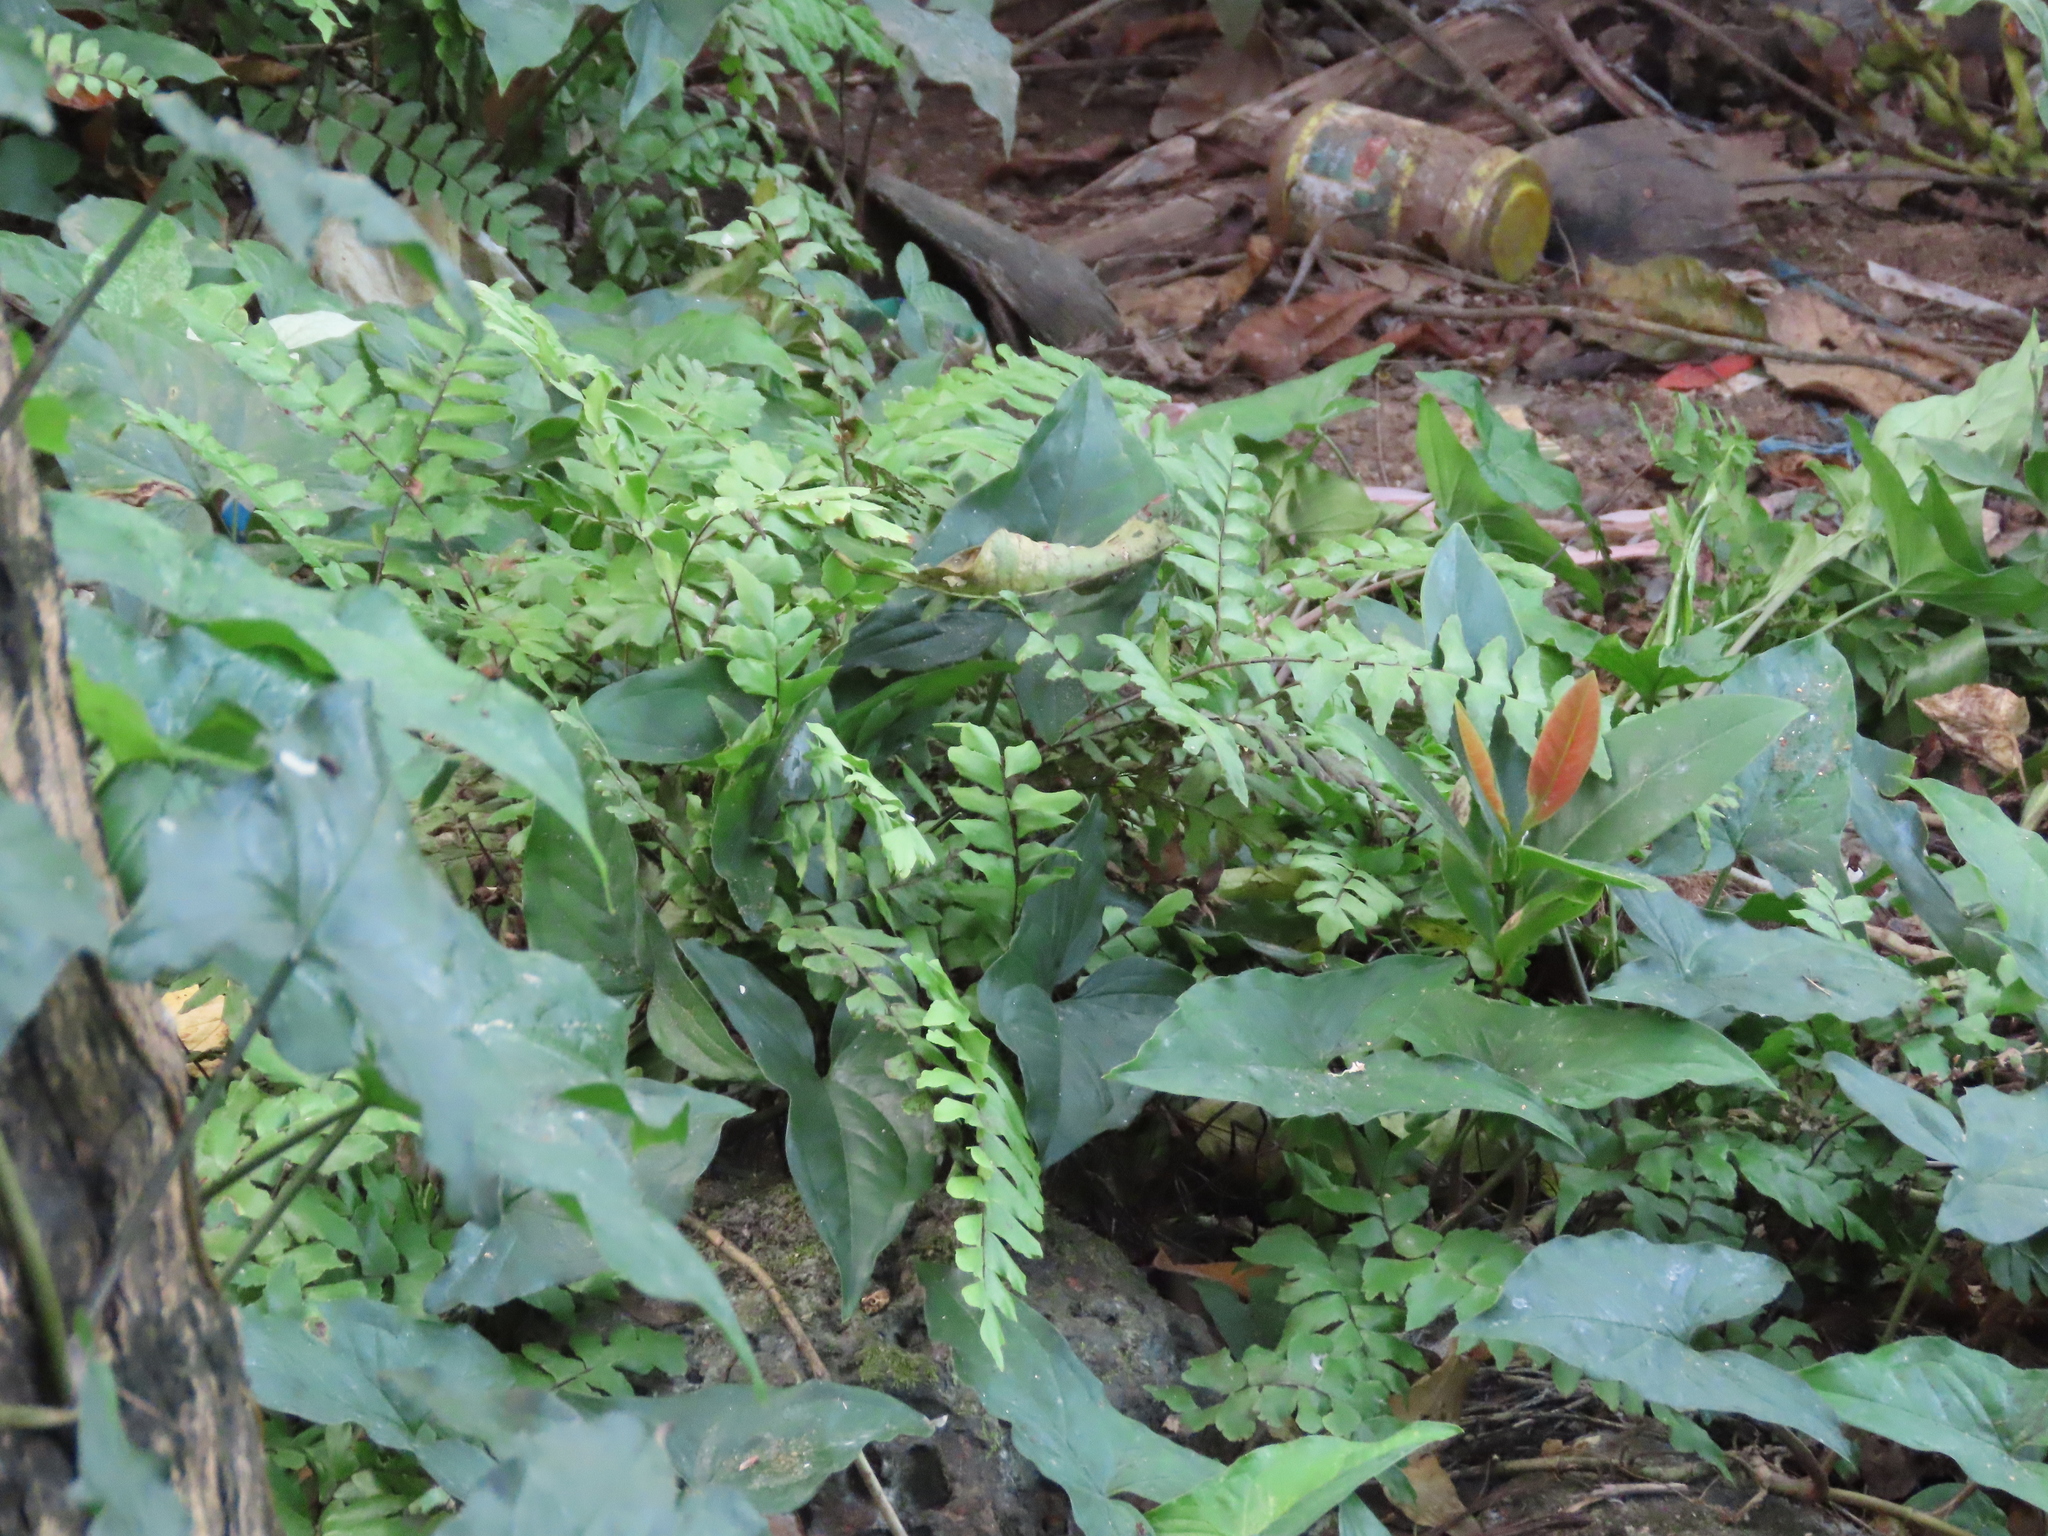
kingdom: Plantae
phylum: Tracheophyta
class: Polypodiopsida
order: Polypodiales
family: Pteridaceae
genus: Adiantum
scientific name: Adiantum latifolium
